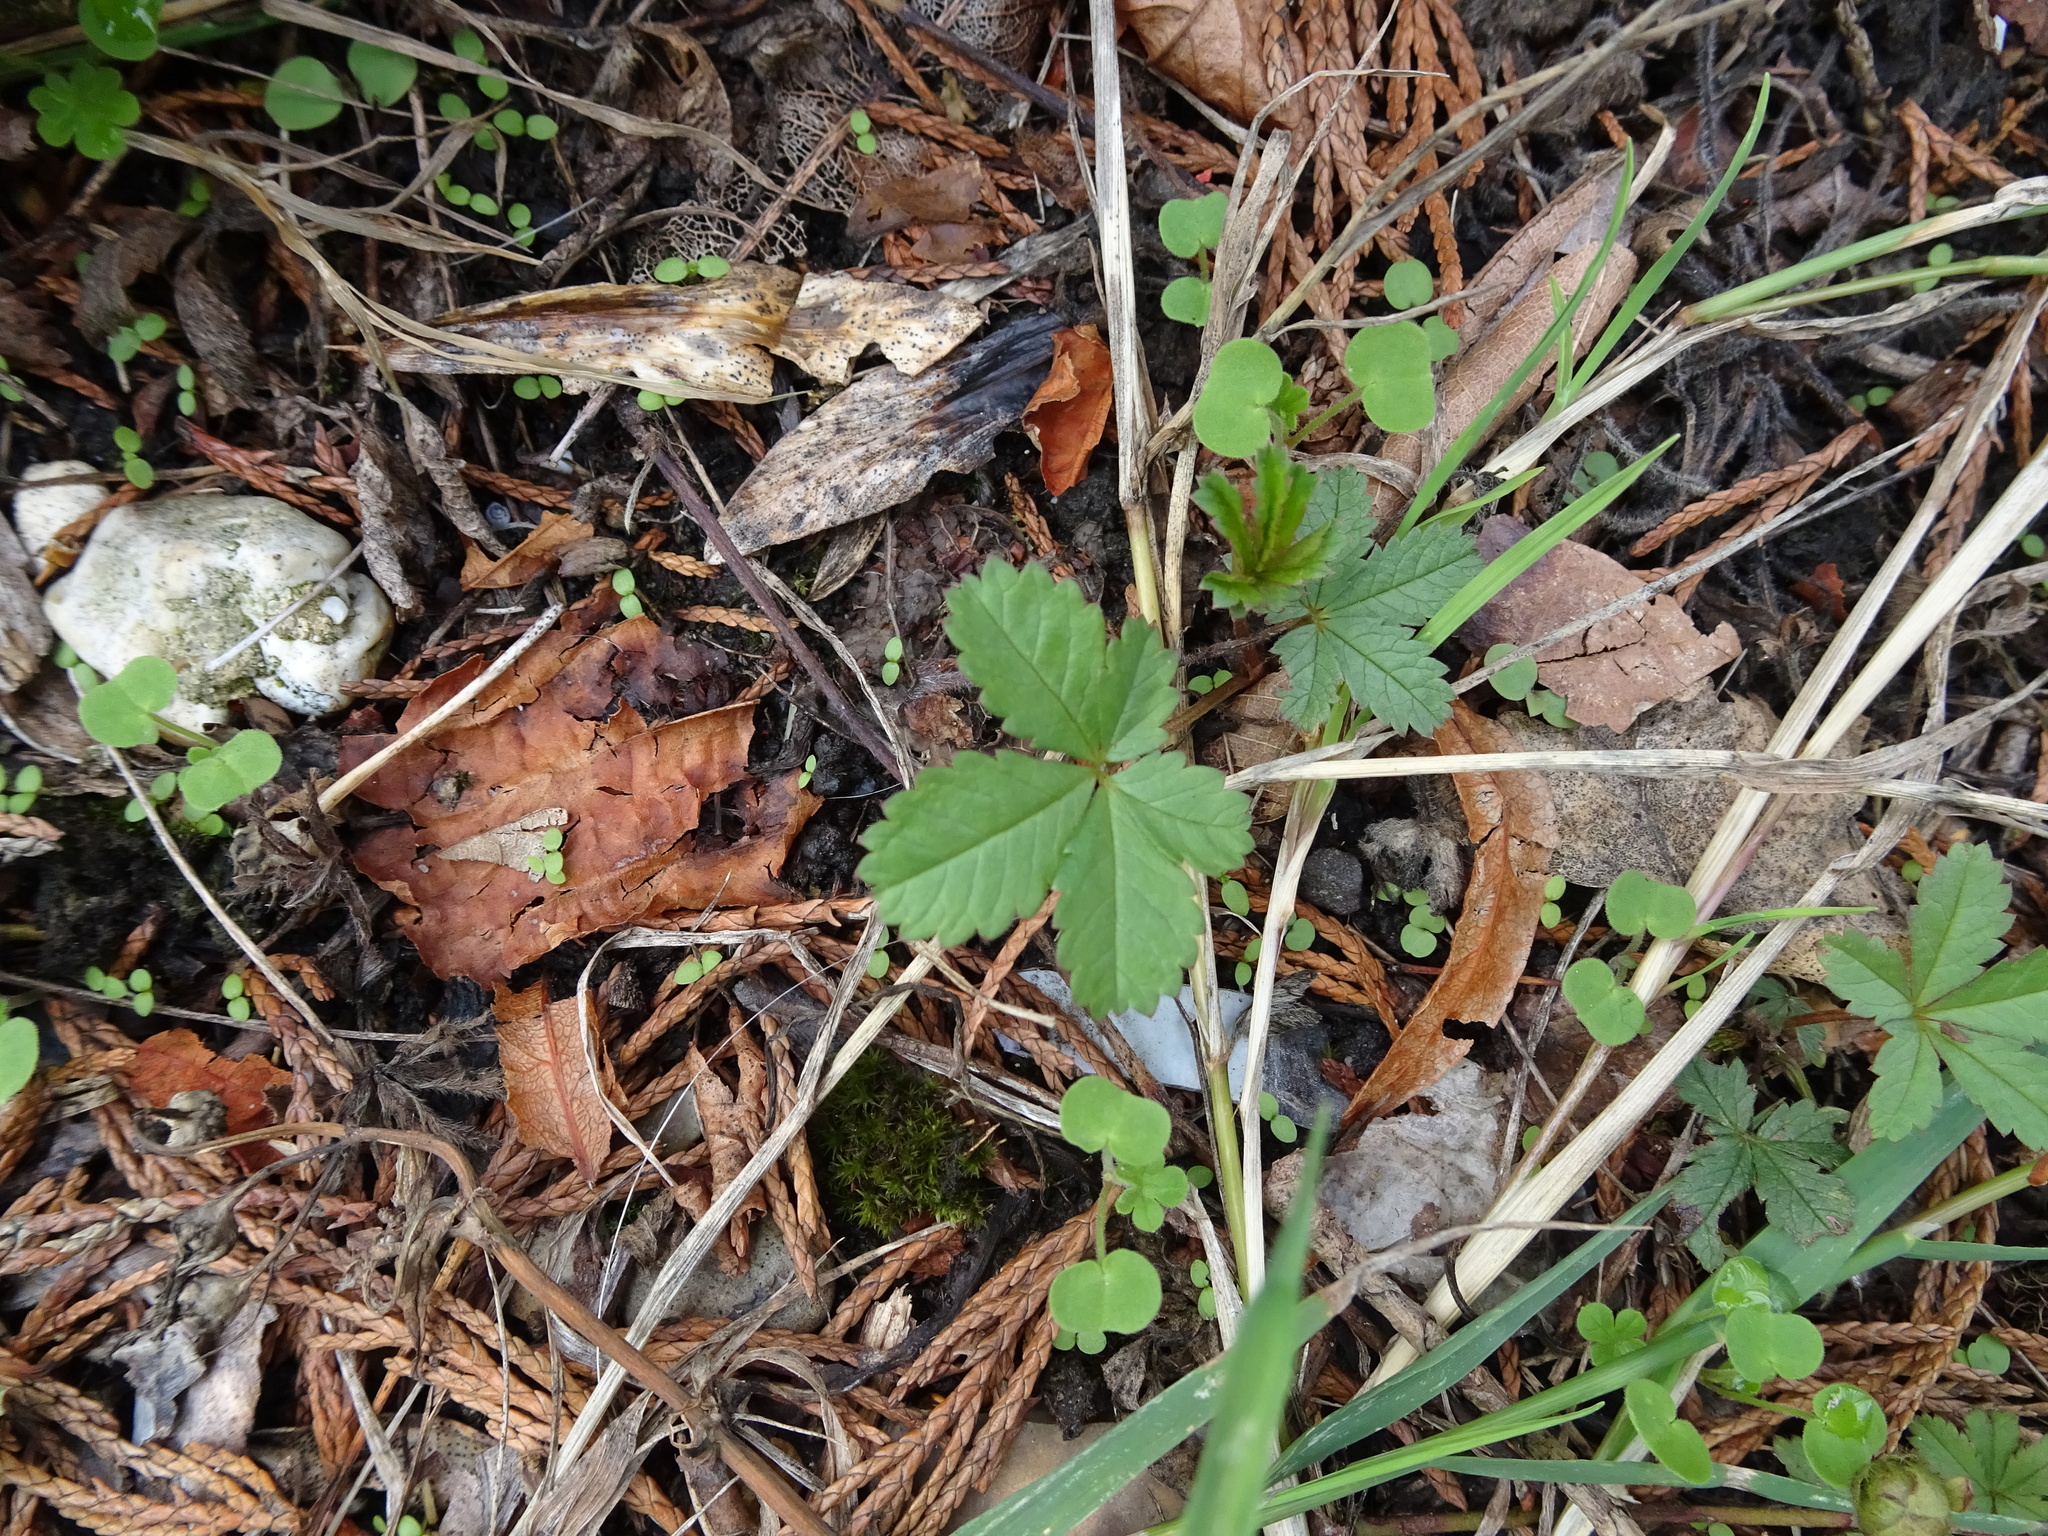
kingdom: Plantae
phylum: Tracheophyta
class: Magnoliopsida
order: Rosales
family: Rosaceae
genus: Potentilla
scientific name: Potentilla reptans
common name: Creeping cinquefoil
